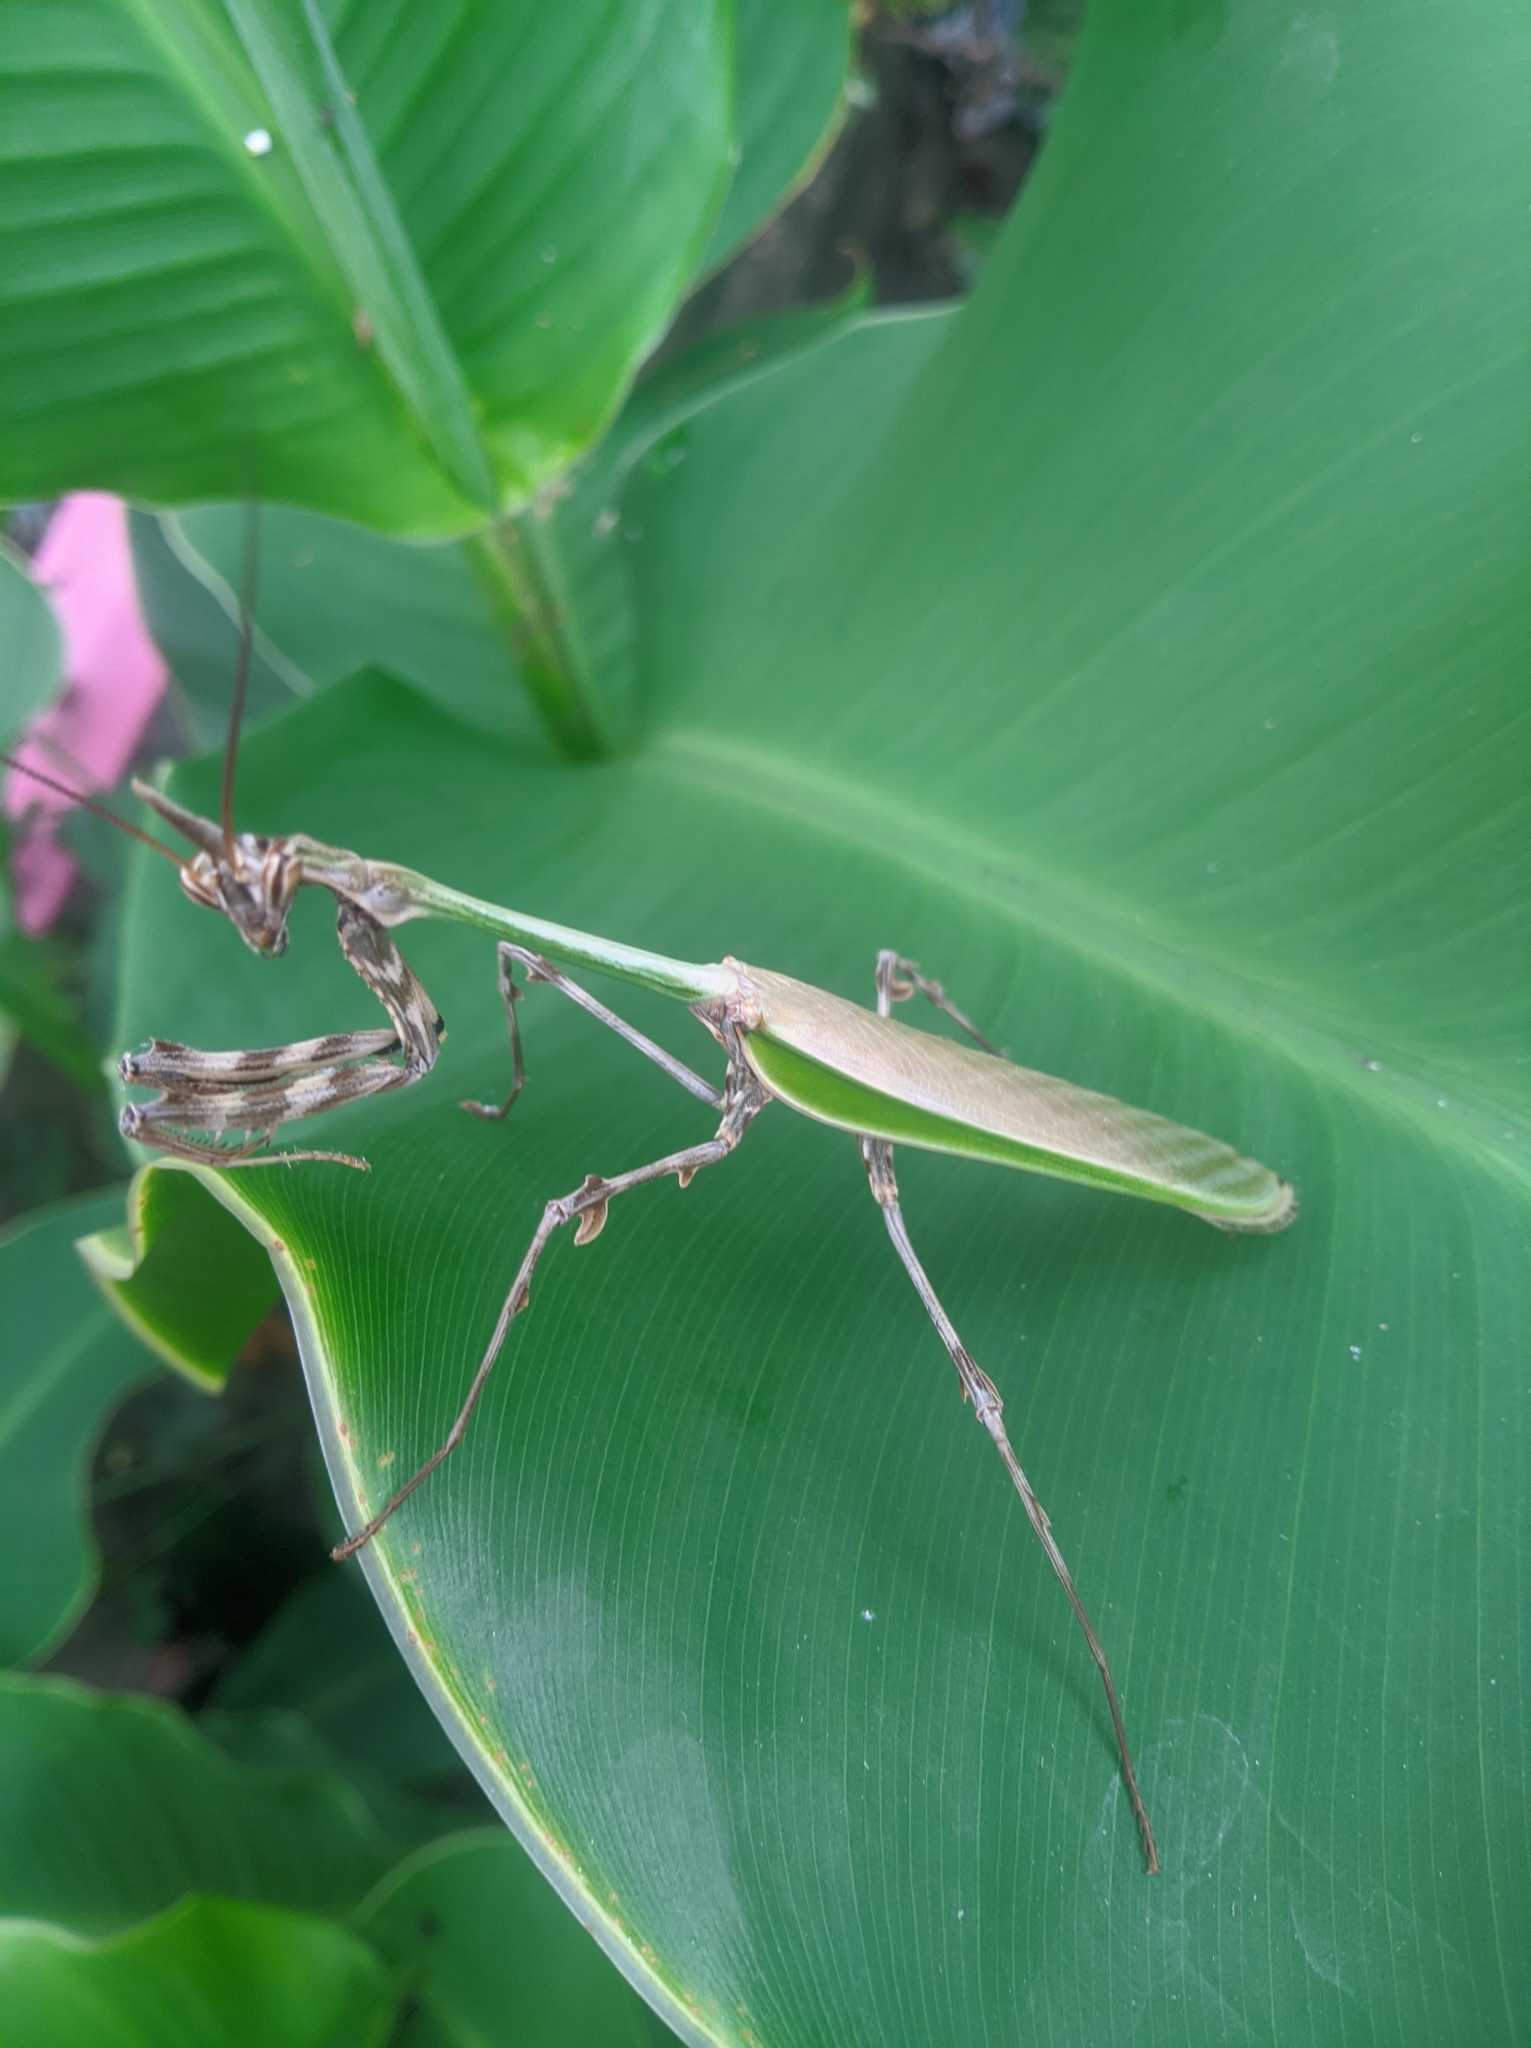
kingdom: Animalia
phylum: Arthropoda
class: Insecta
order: Mantodea
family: Mantidae
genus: Zoolea
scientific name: Zoolea lobipes
